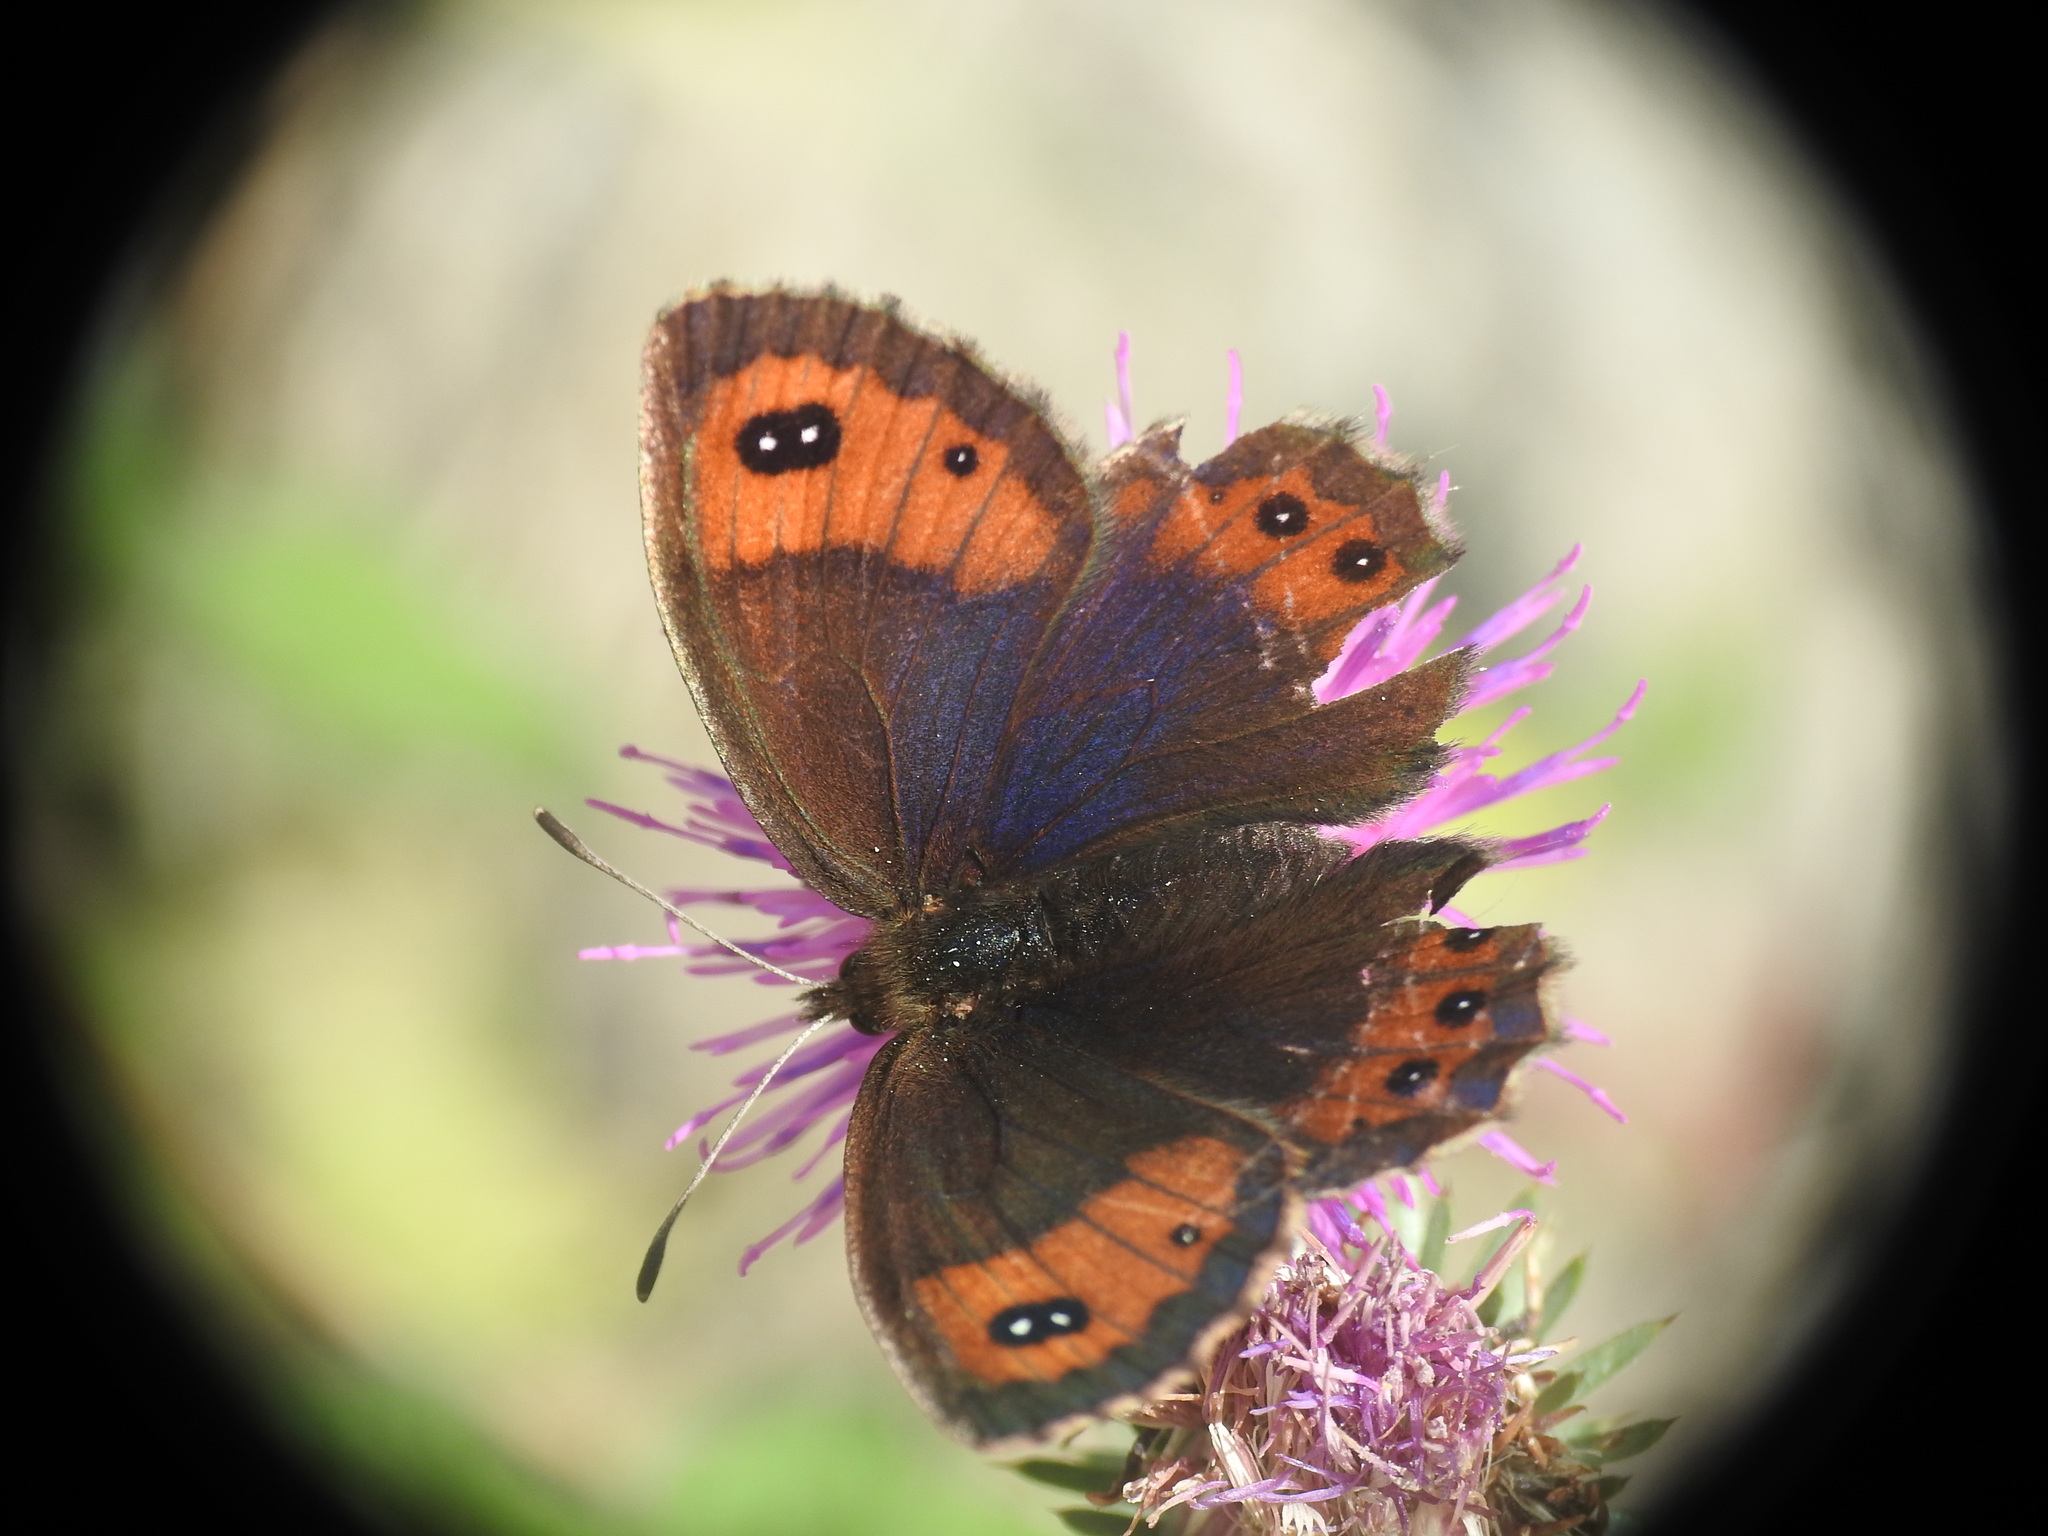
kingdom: Animalia
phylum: Arthropoda
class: Insecta
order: Lepidoptera
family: Nymphalidae
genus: Erebia
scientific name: Erebia montanus
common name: Marbled ringlet
